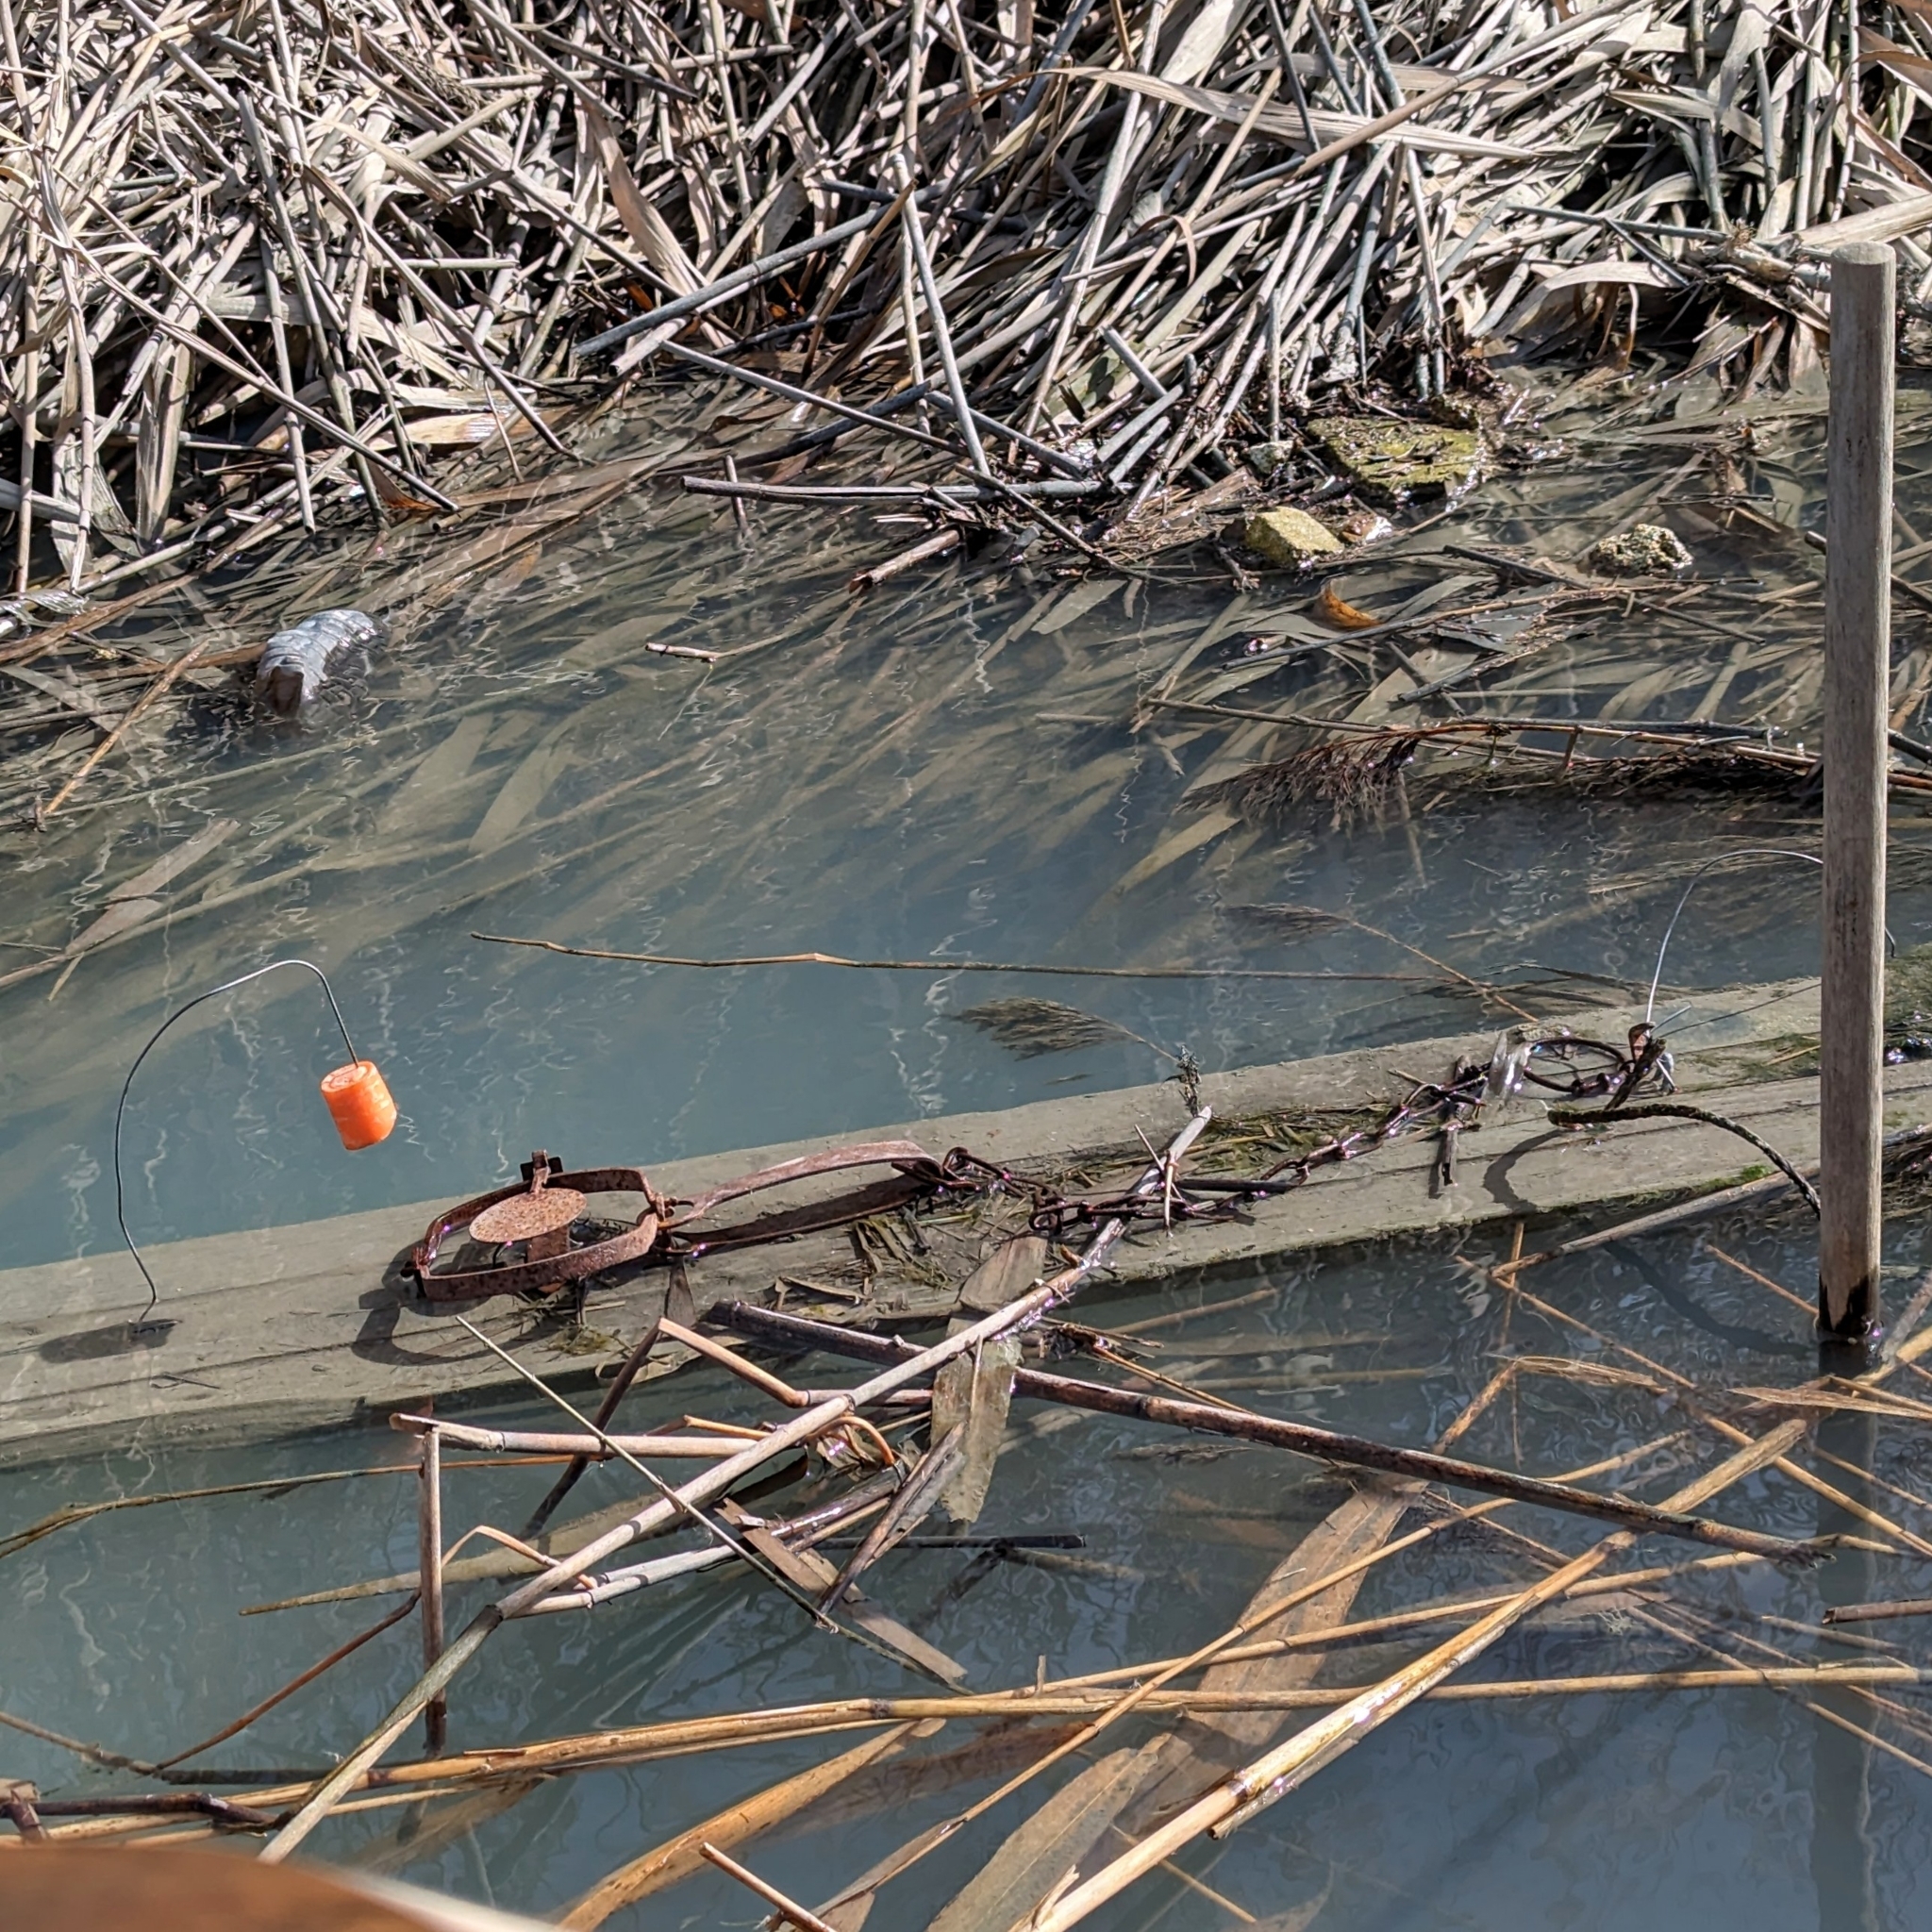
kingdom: Animalia
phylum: Chordata
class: Mammalia
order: Rodentia
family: Cricetidae
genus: Ondatra
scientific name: Ondatra zibethicus
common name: Muskrat
